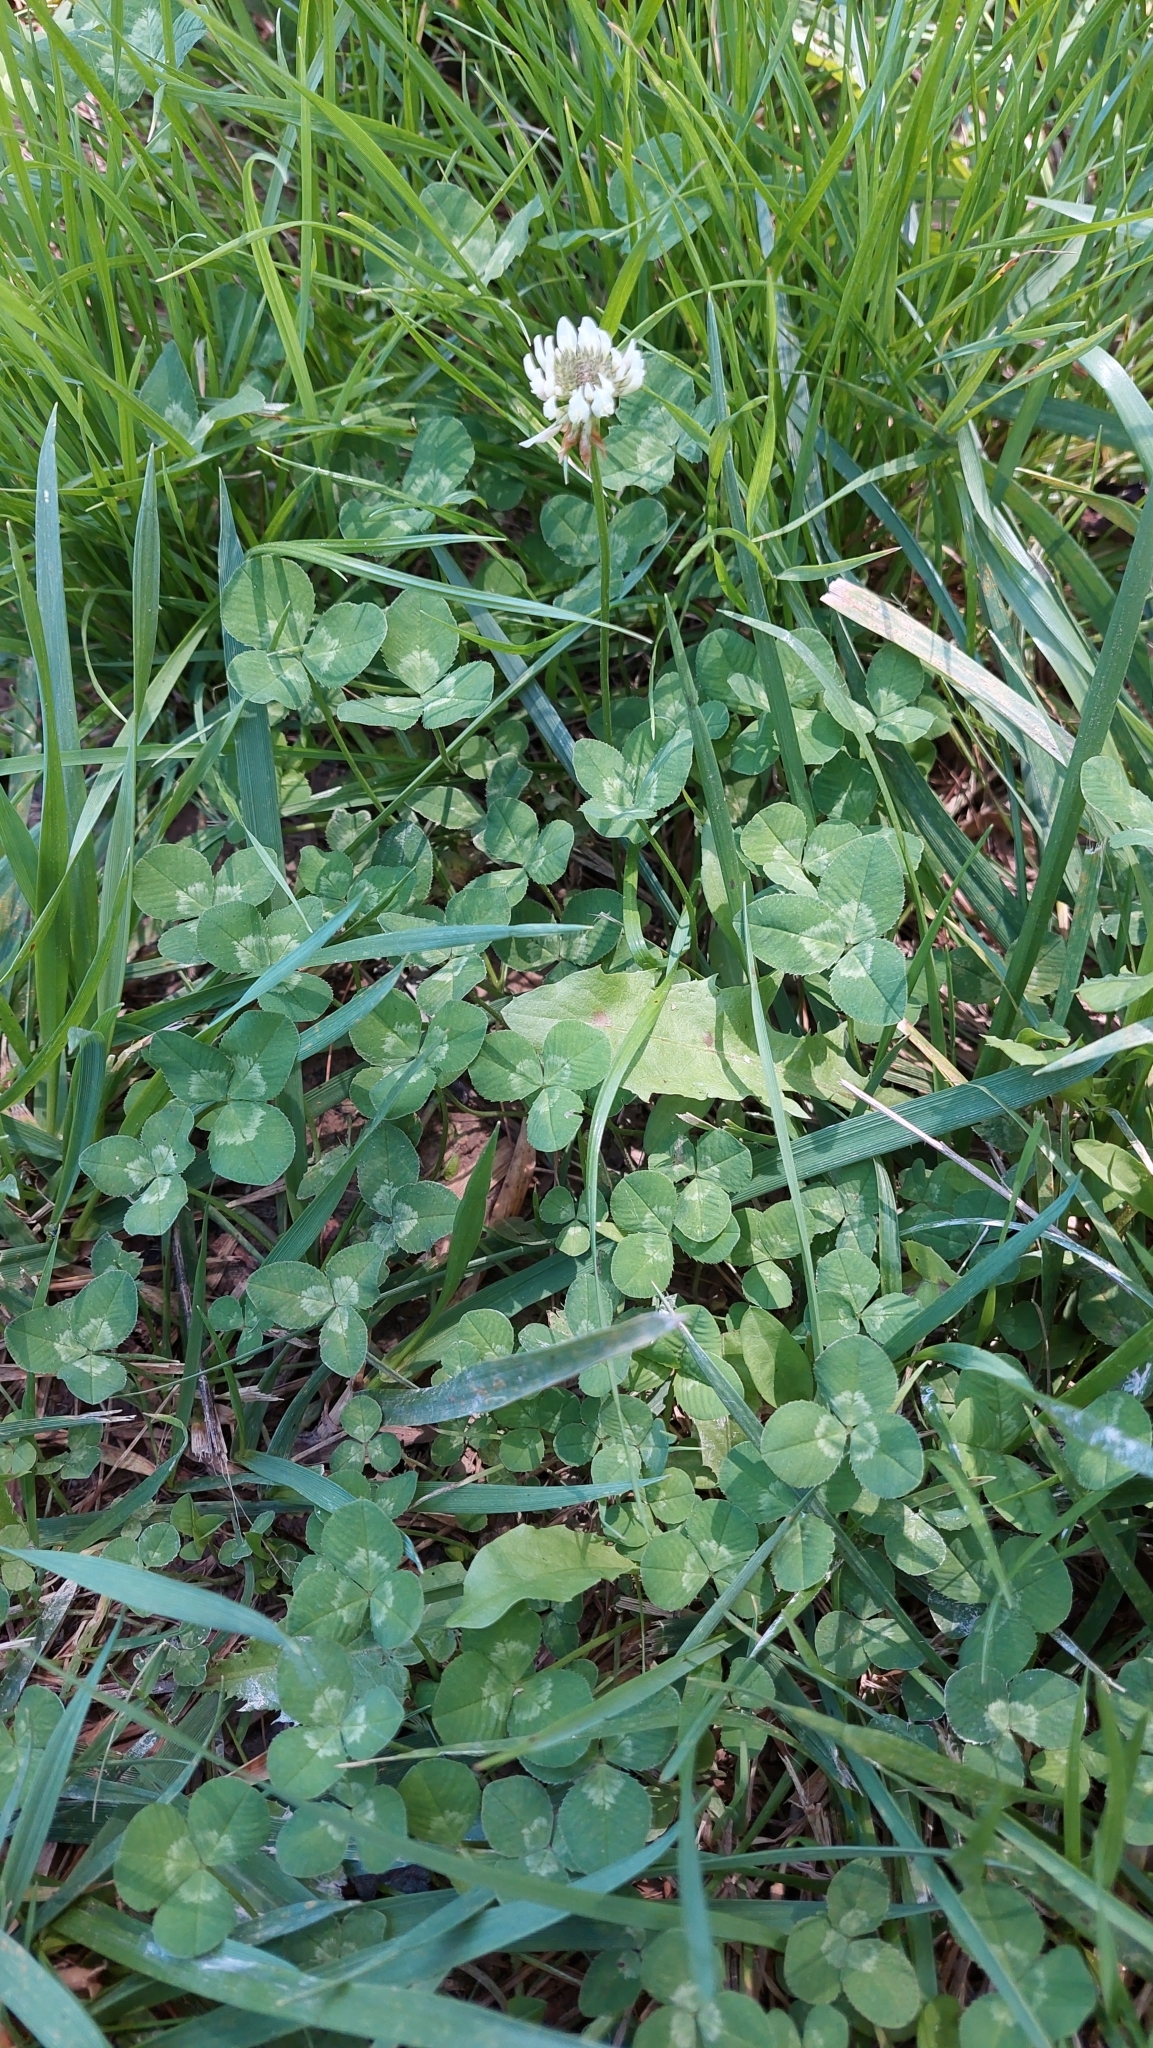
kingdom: Plantae
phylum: Tracheophyta
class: Magnoliopsida
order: Fabales
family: Fabaceae
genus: Trifolium
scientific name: Trifolium repens
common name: White clover
